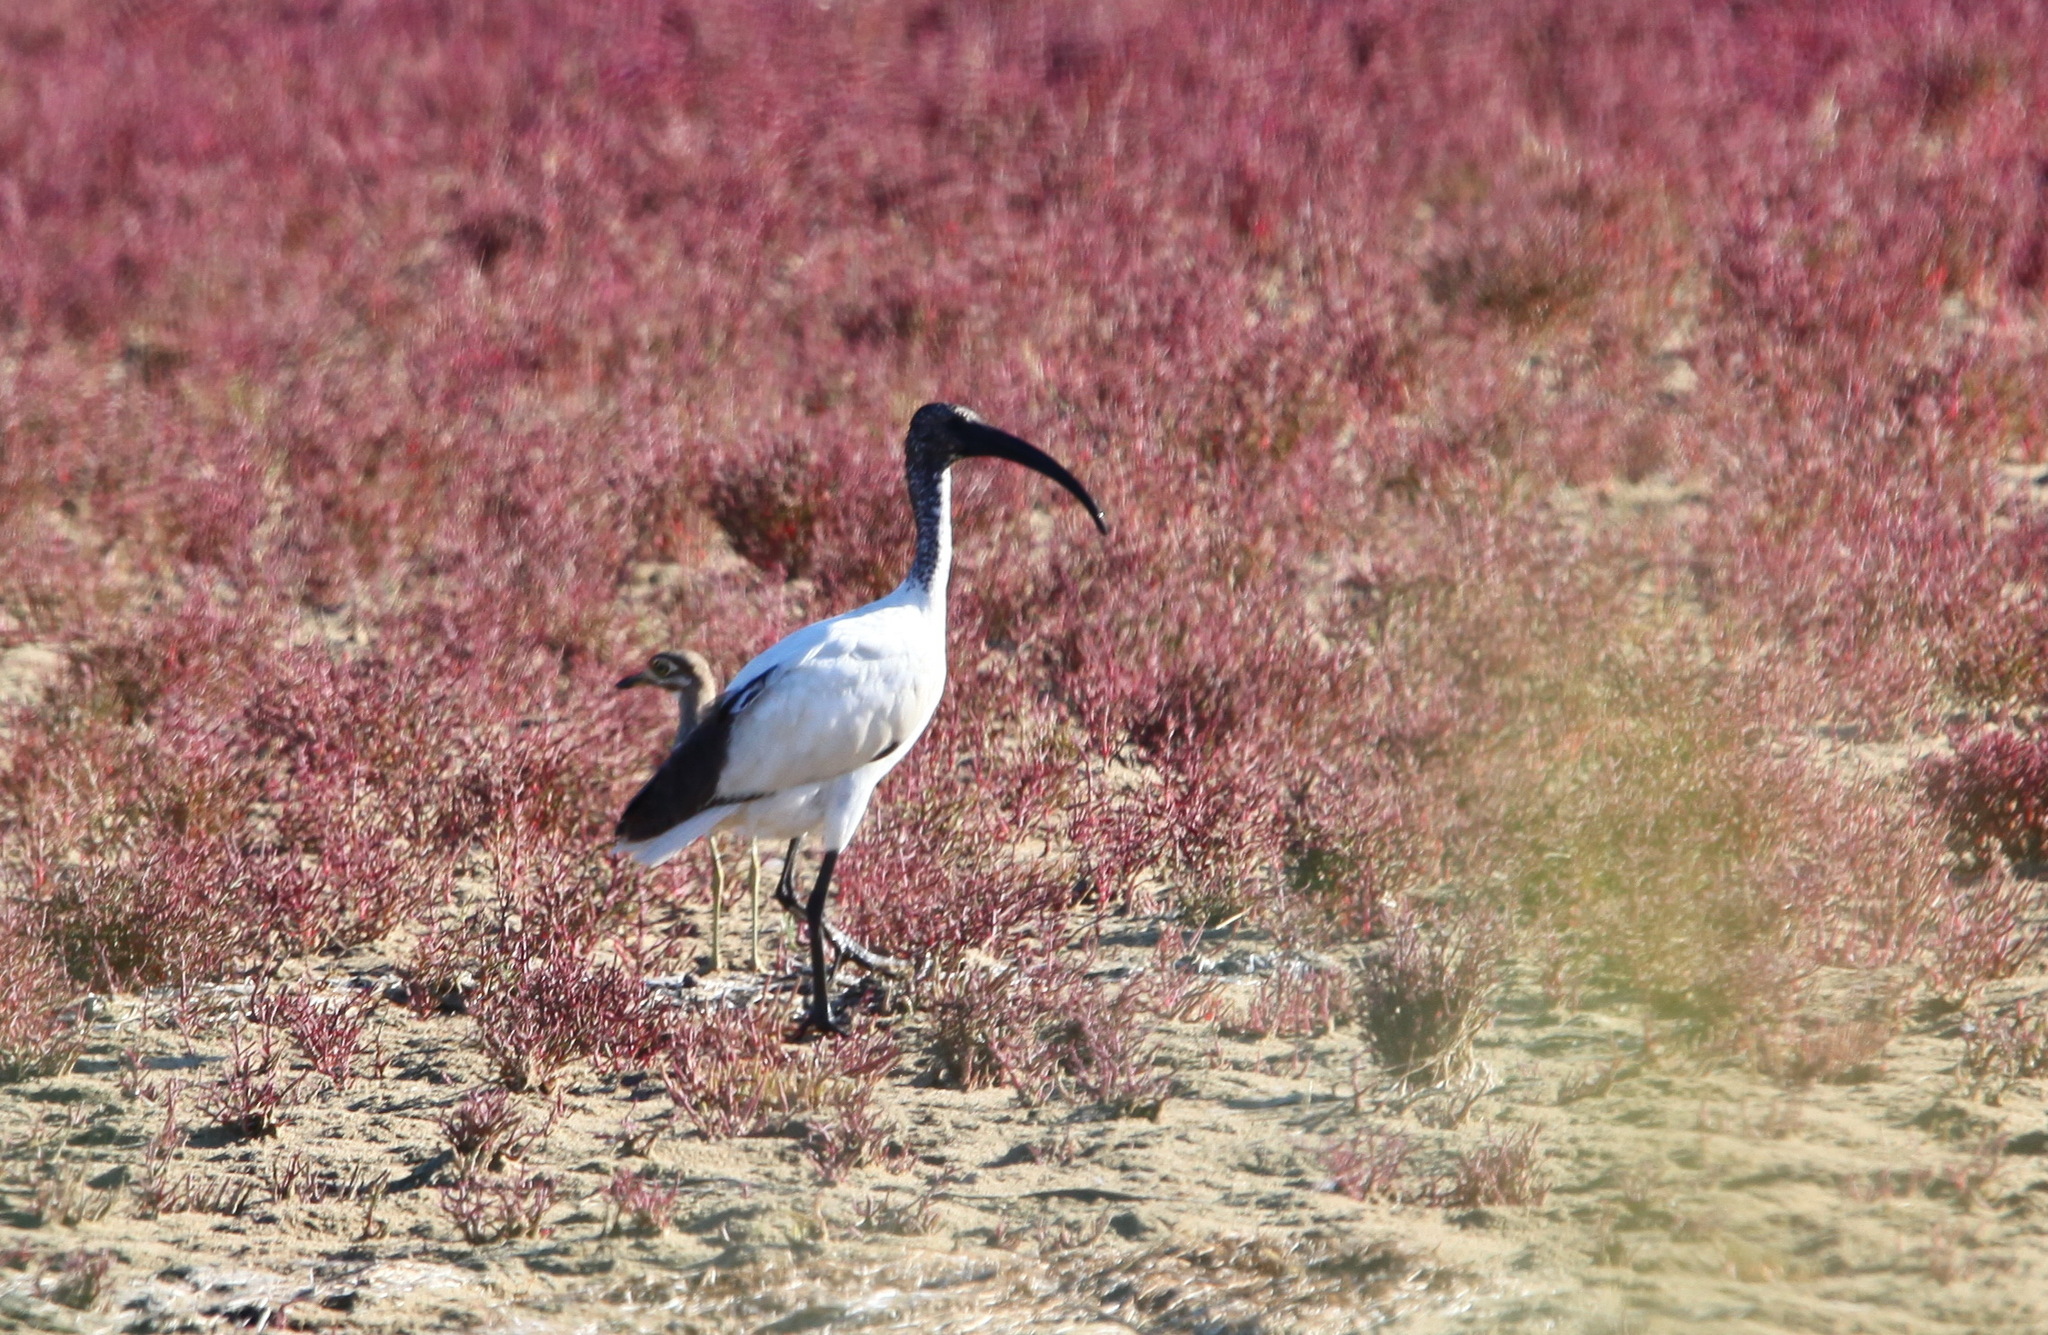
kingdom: Animalia
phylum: Chordata
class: Aves
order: Pelecaniformes
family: Threskiornithidae
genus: Threskiornis
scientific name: Threskiornis aethiopicus
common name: Sacred ibis
